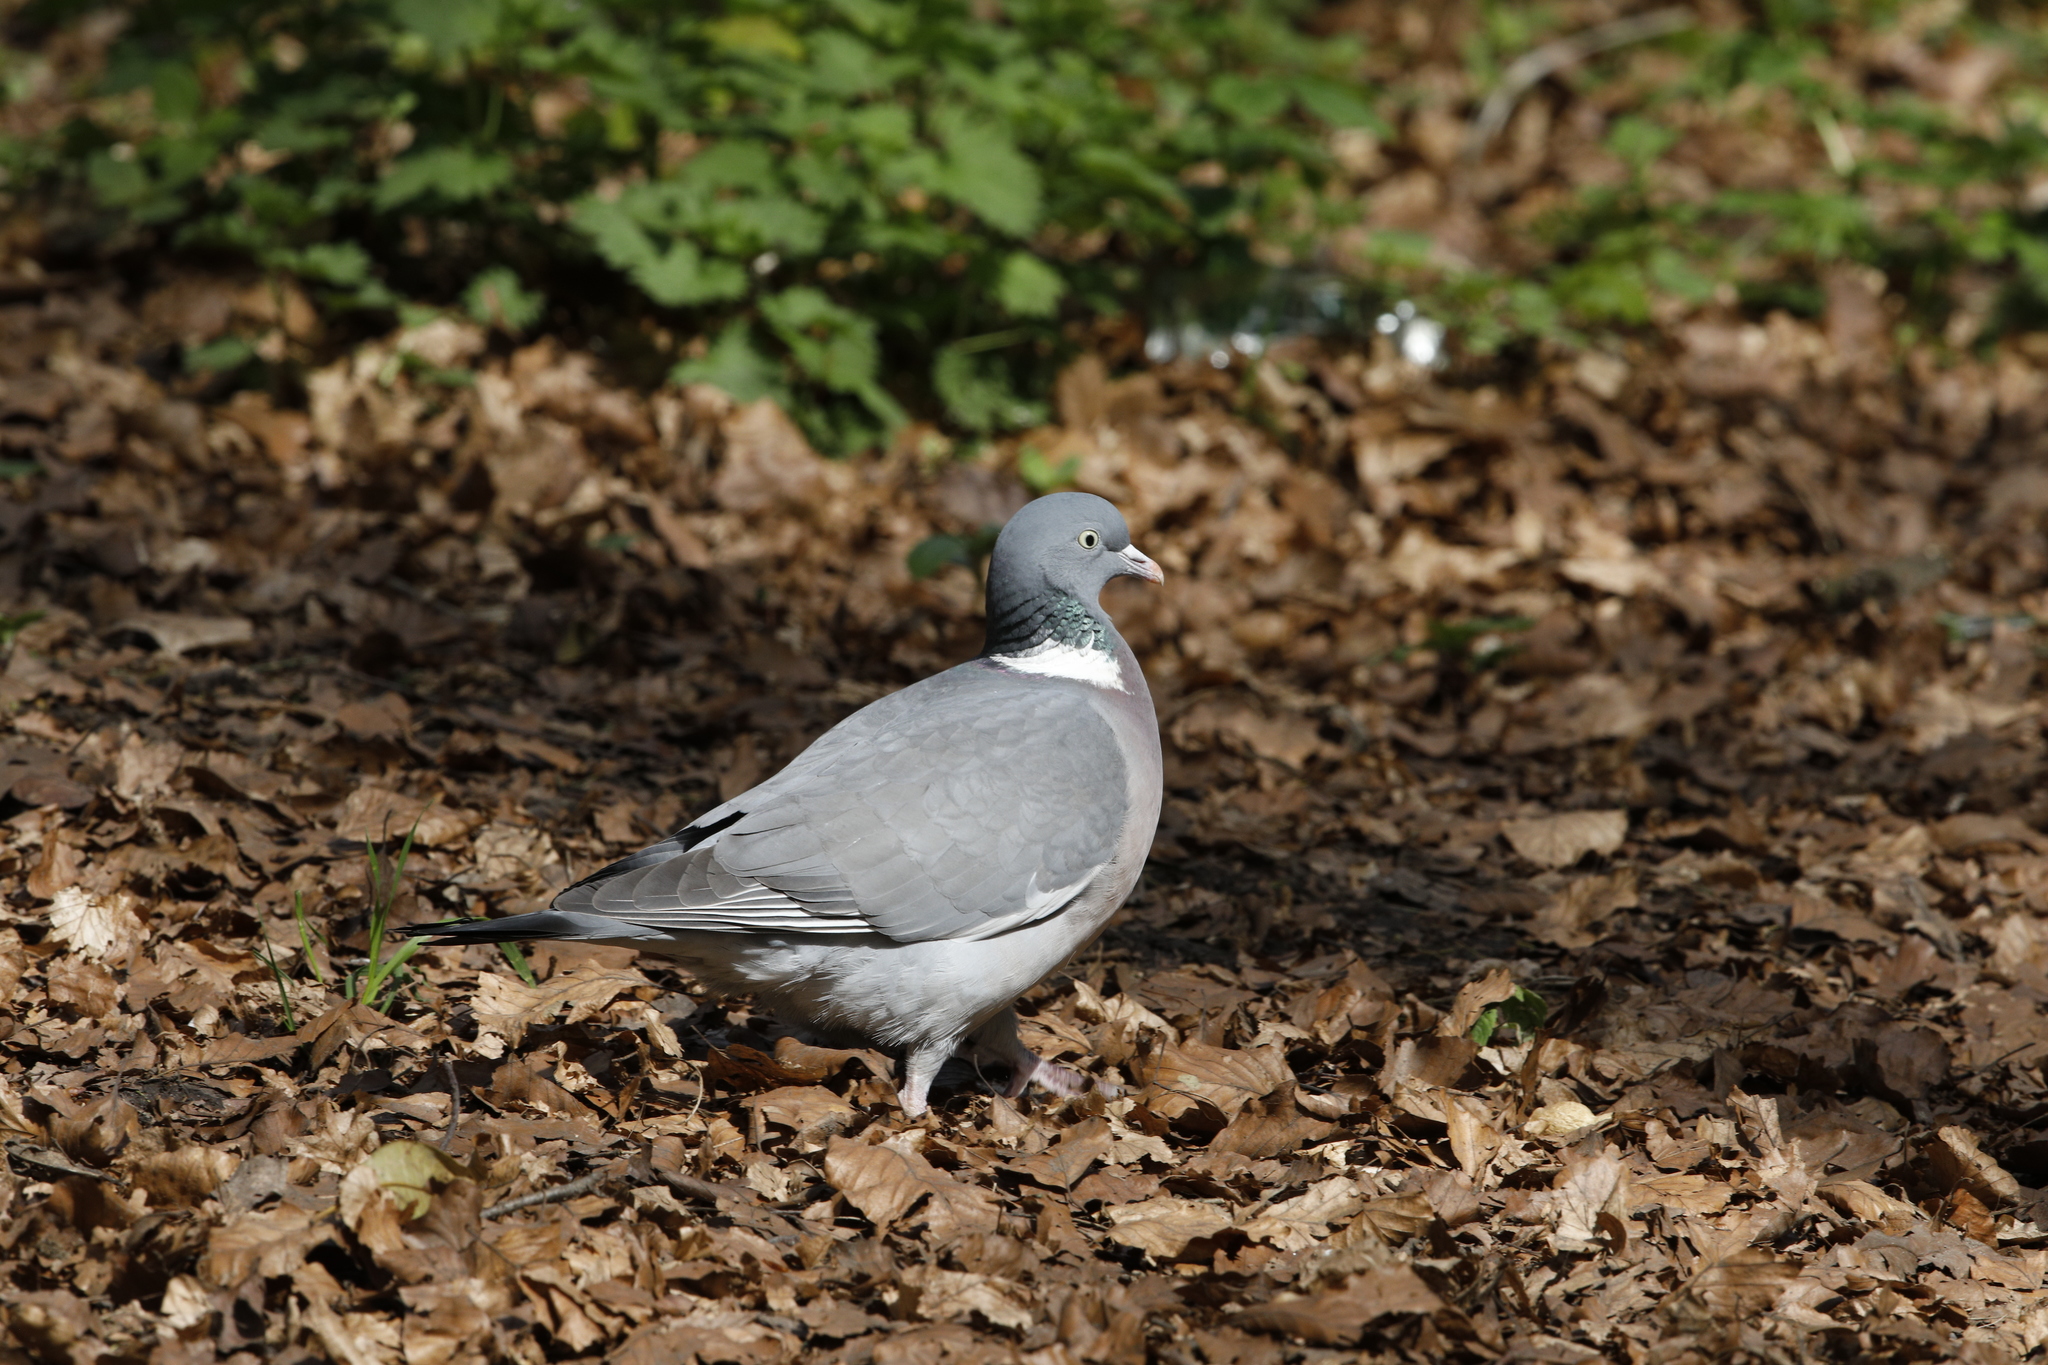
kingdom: Animalia
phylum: Chordata
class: Aves
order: Columbiformes
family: Columbidae
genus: Columba
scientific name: Columba palumbus
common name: Common wood pigeon
